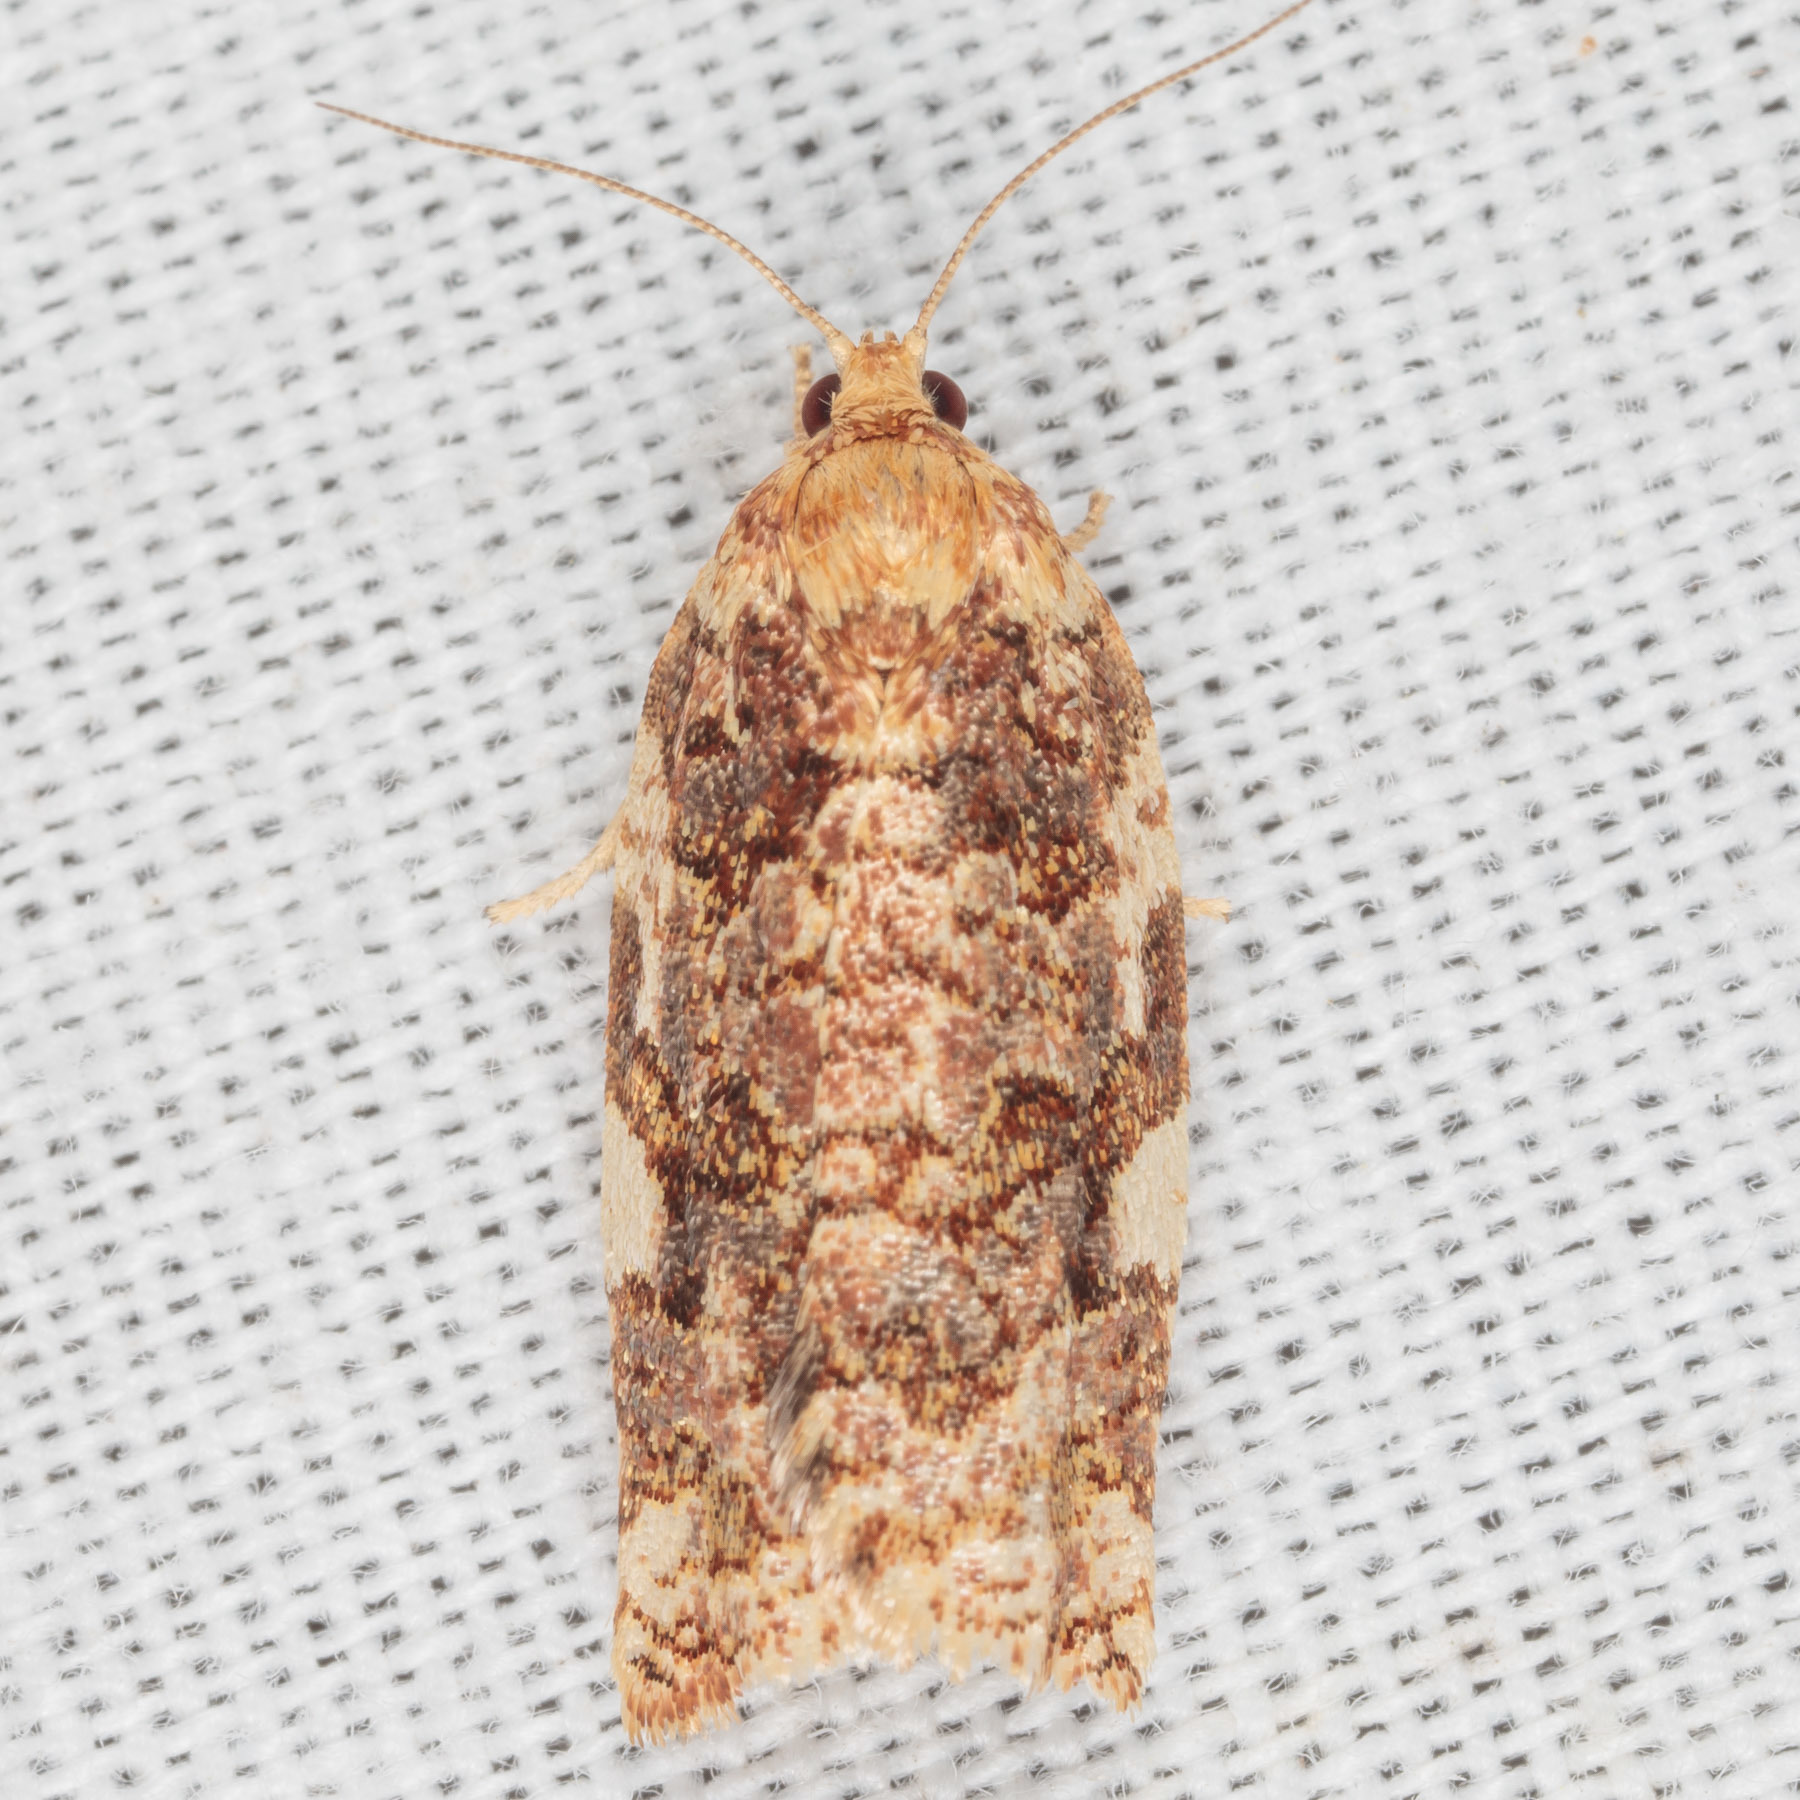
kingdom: Animalia
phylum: Arthropoda
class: Insecta
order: Lepidoptera
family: Tortricidae
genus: Archips
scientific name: Archips argyrospila
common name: Fruit-tree leafroller moth
